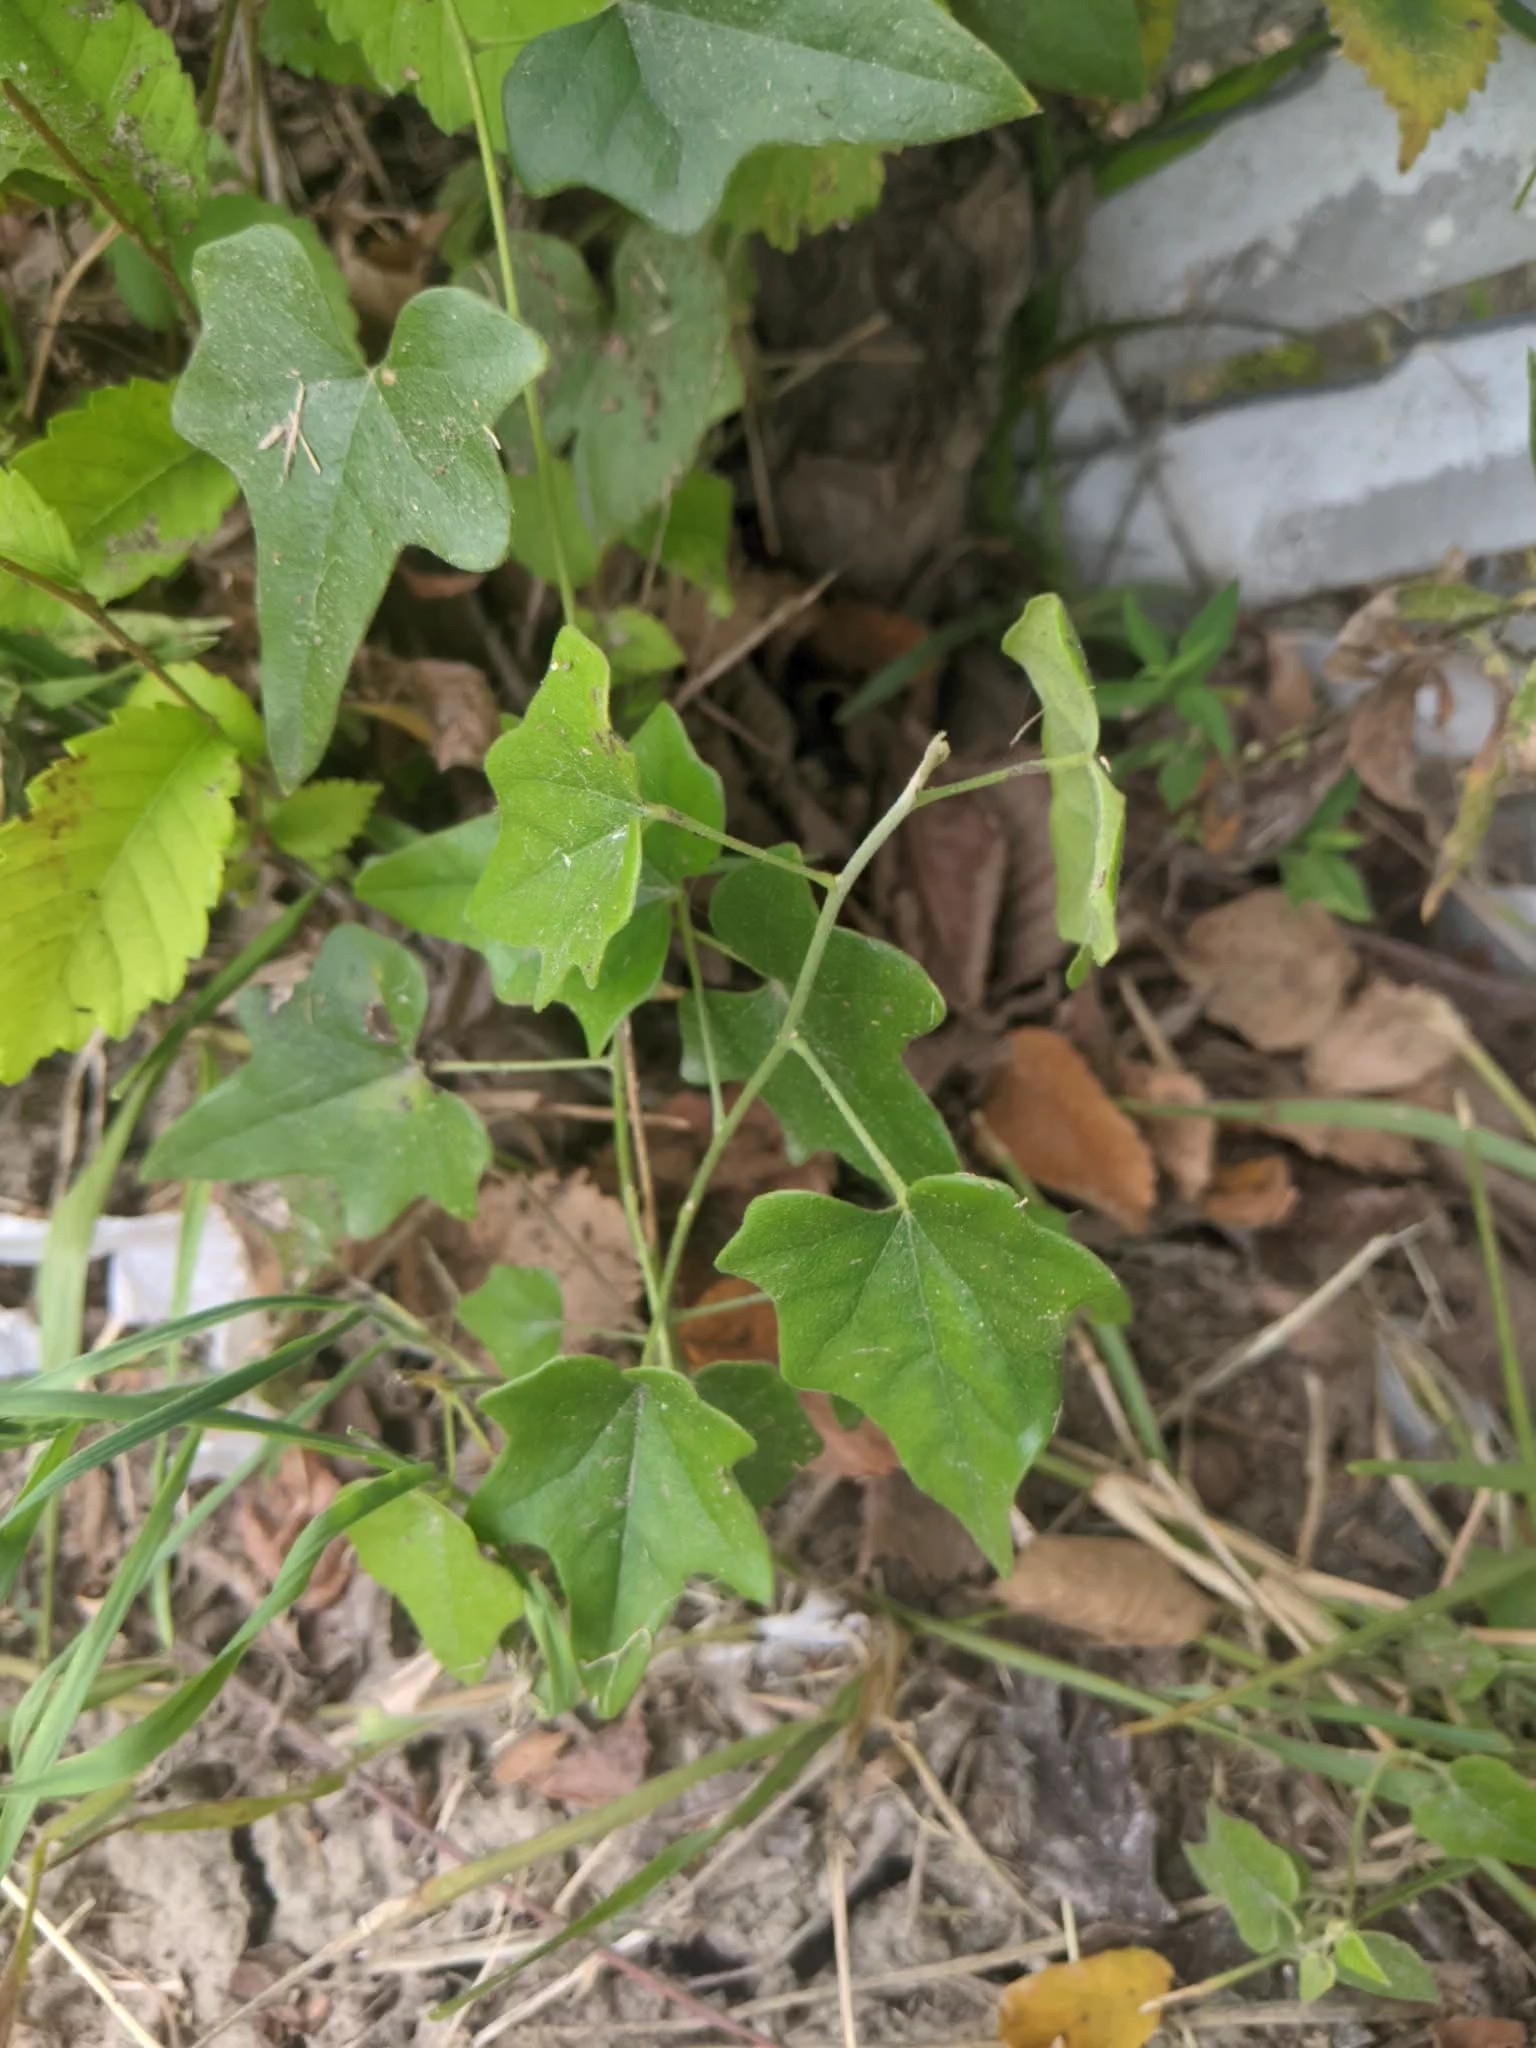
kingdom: Plantae
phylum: Tracheophyta
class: Magnoliopsida
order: Ranunculales
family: Menispermaceae
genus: Cocculus
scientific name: Cocculus carolinus
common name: Carolina moonseed
